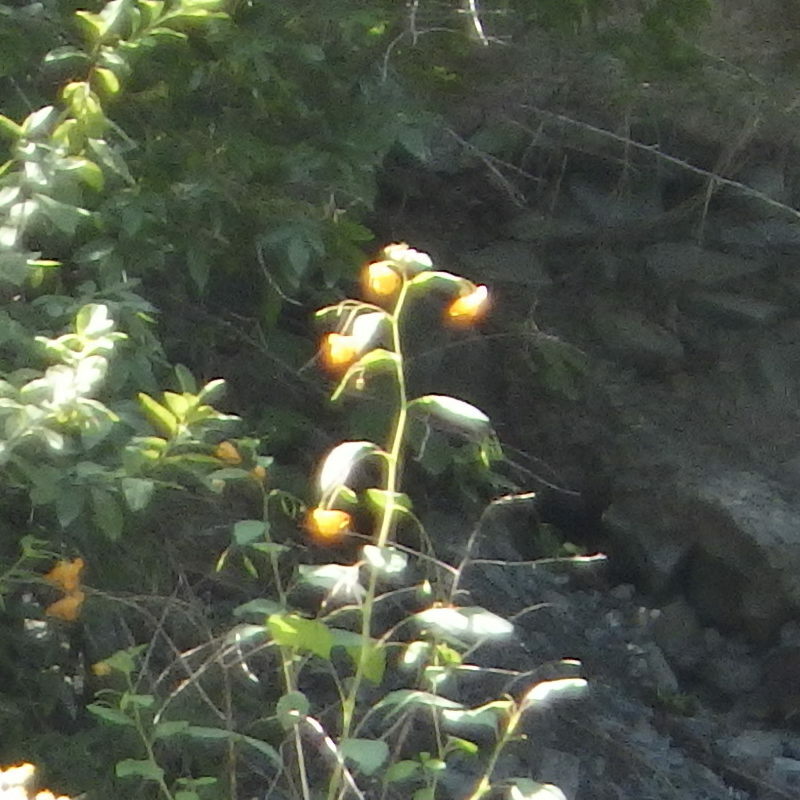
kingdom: Plantae
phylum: Tracheophyta
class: Magnoliopsida
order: Ericales
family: Balsaminaceae
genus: Impatiens
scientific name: Impatiens capensis
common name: Orange balsam
